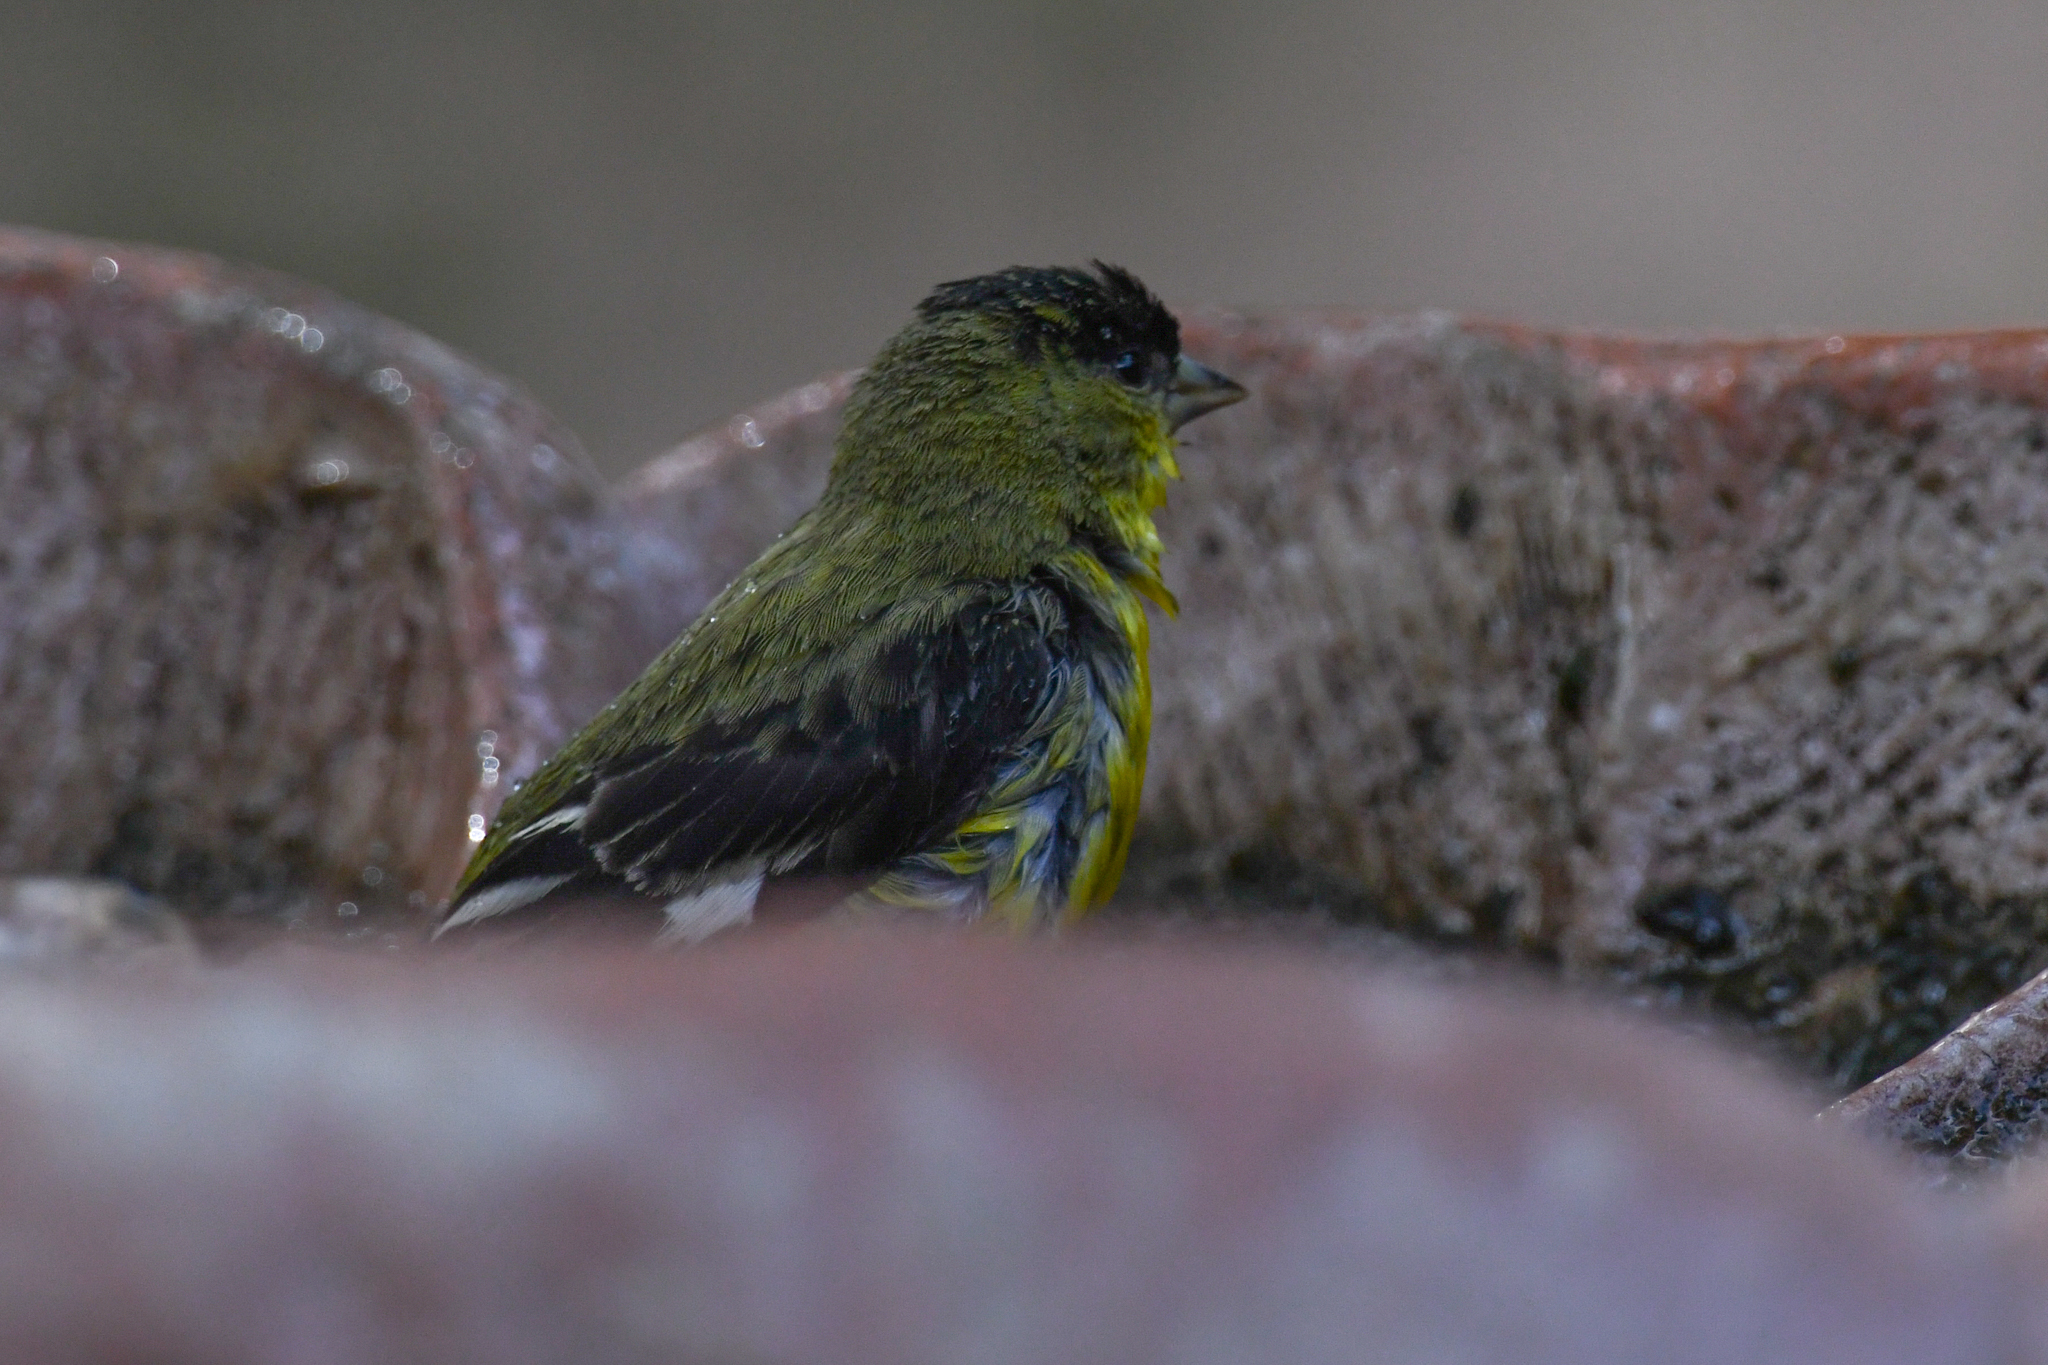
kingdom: Animalia
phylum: Chordata
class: Aves
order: Passeriformes
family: Fringillidae
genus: Spinus
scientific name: Spinus psaltria
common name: Lesser goldfinch
